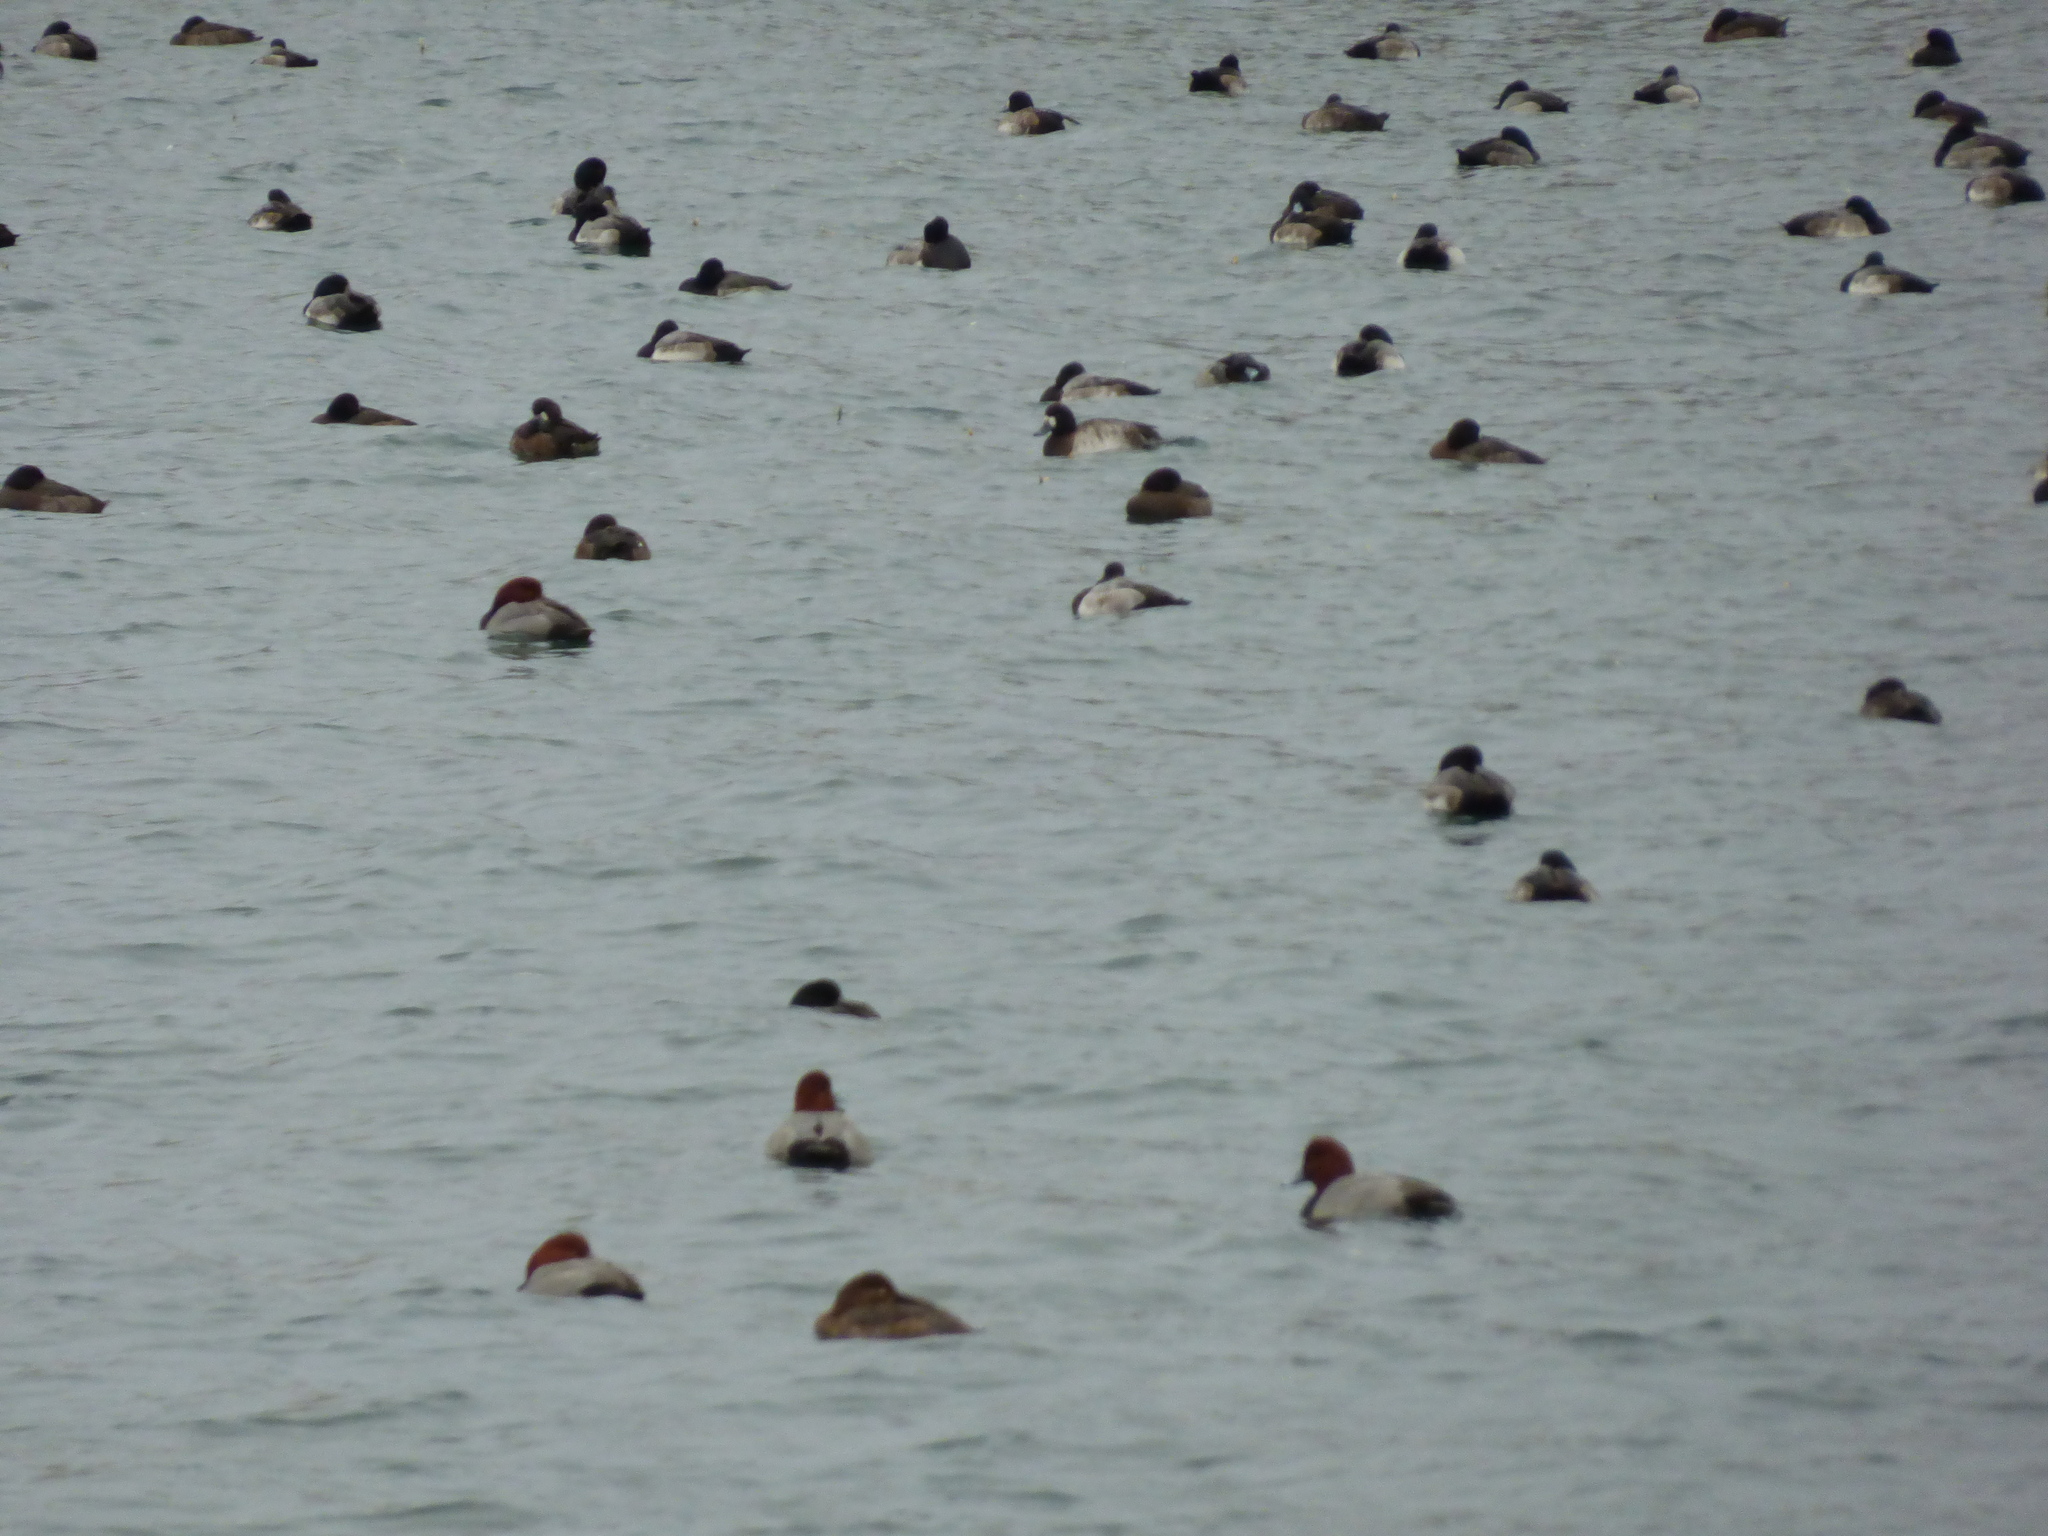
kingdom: Animalia
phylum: Chordata
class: Aves
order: Anseriformes
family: Anatidae
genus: Aythya
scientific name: Aythya americana
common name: Redhead
